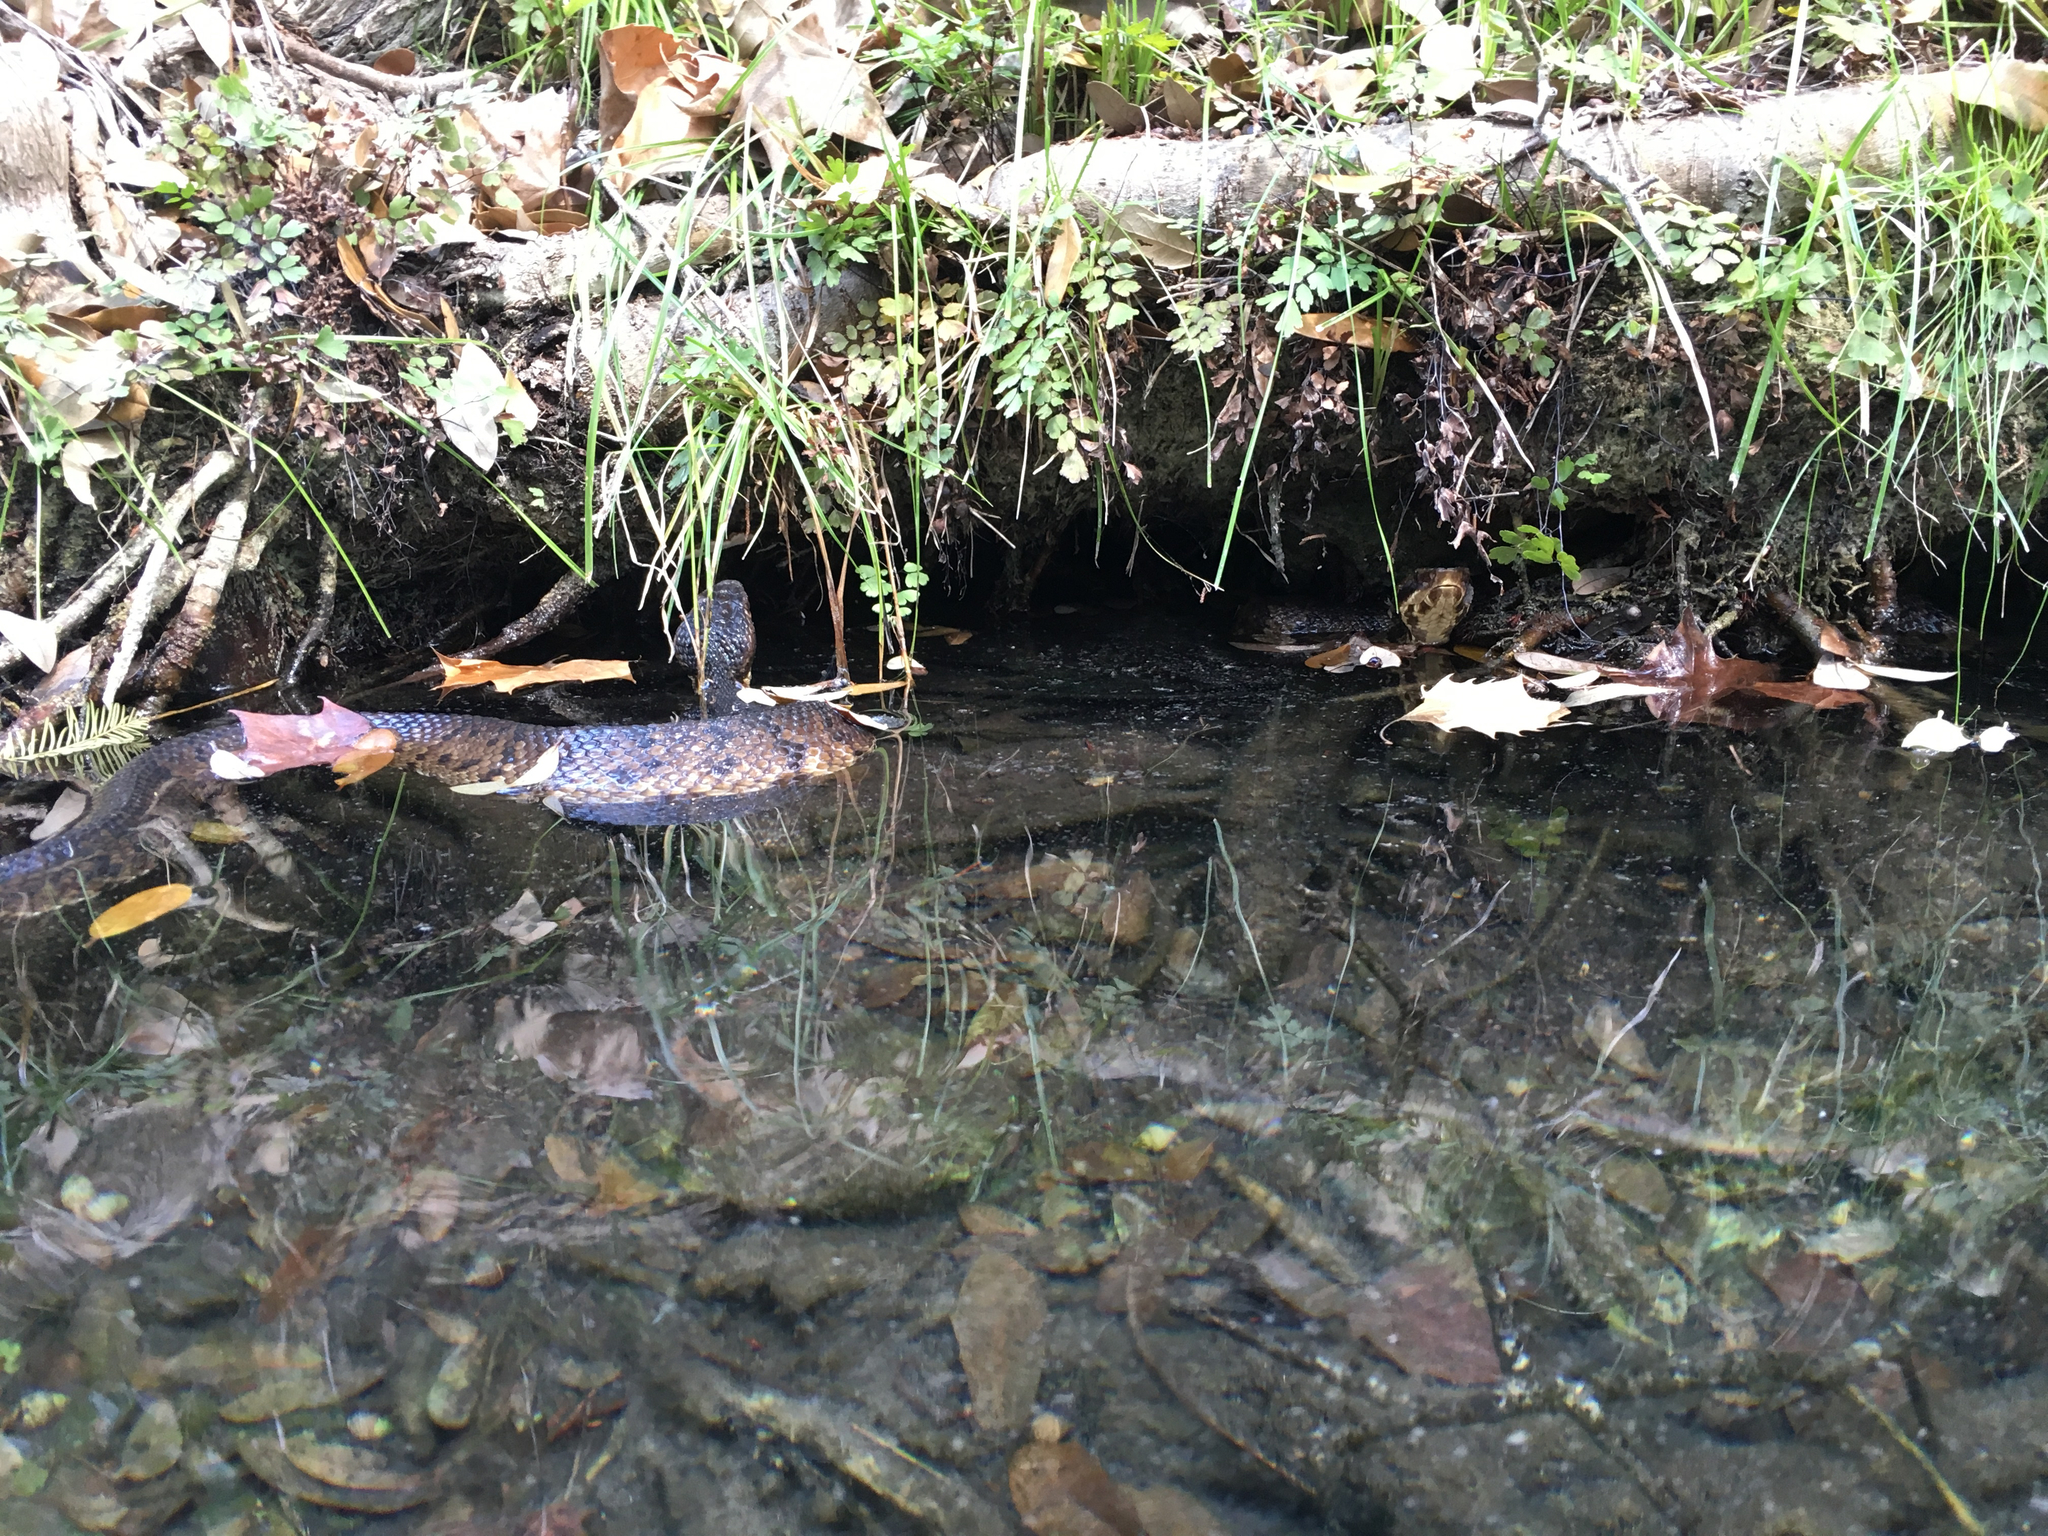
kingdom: Animalia
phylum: Chordata
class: Squamata
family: Viperidae
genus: Agkistrodon
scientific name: Agkistrodon piscivorus
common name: Cottonmouth
